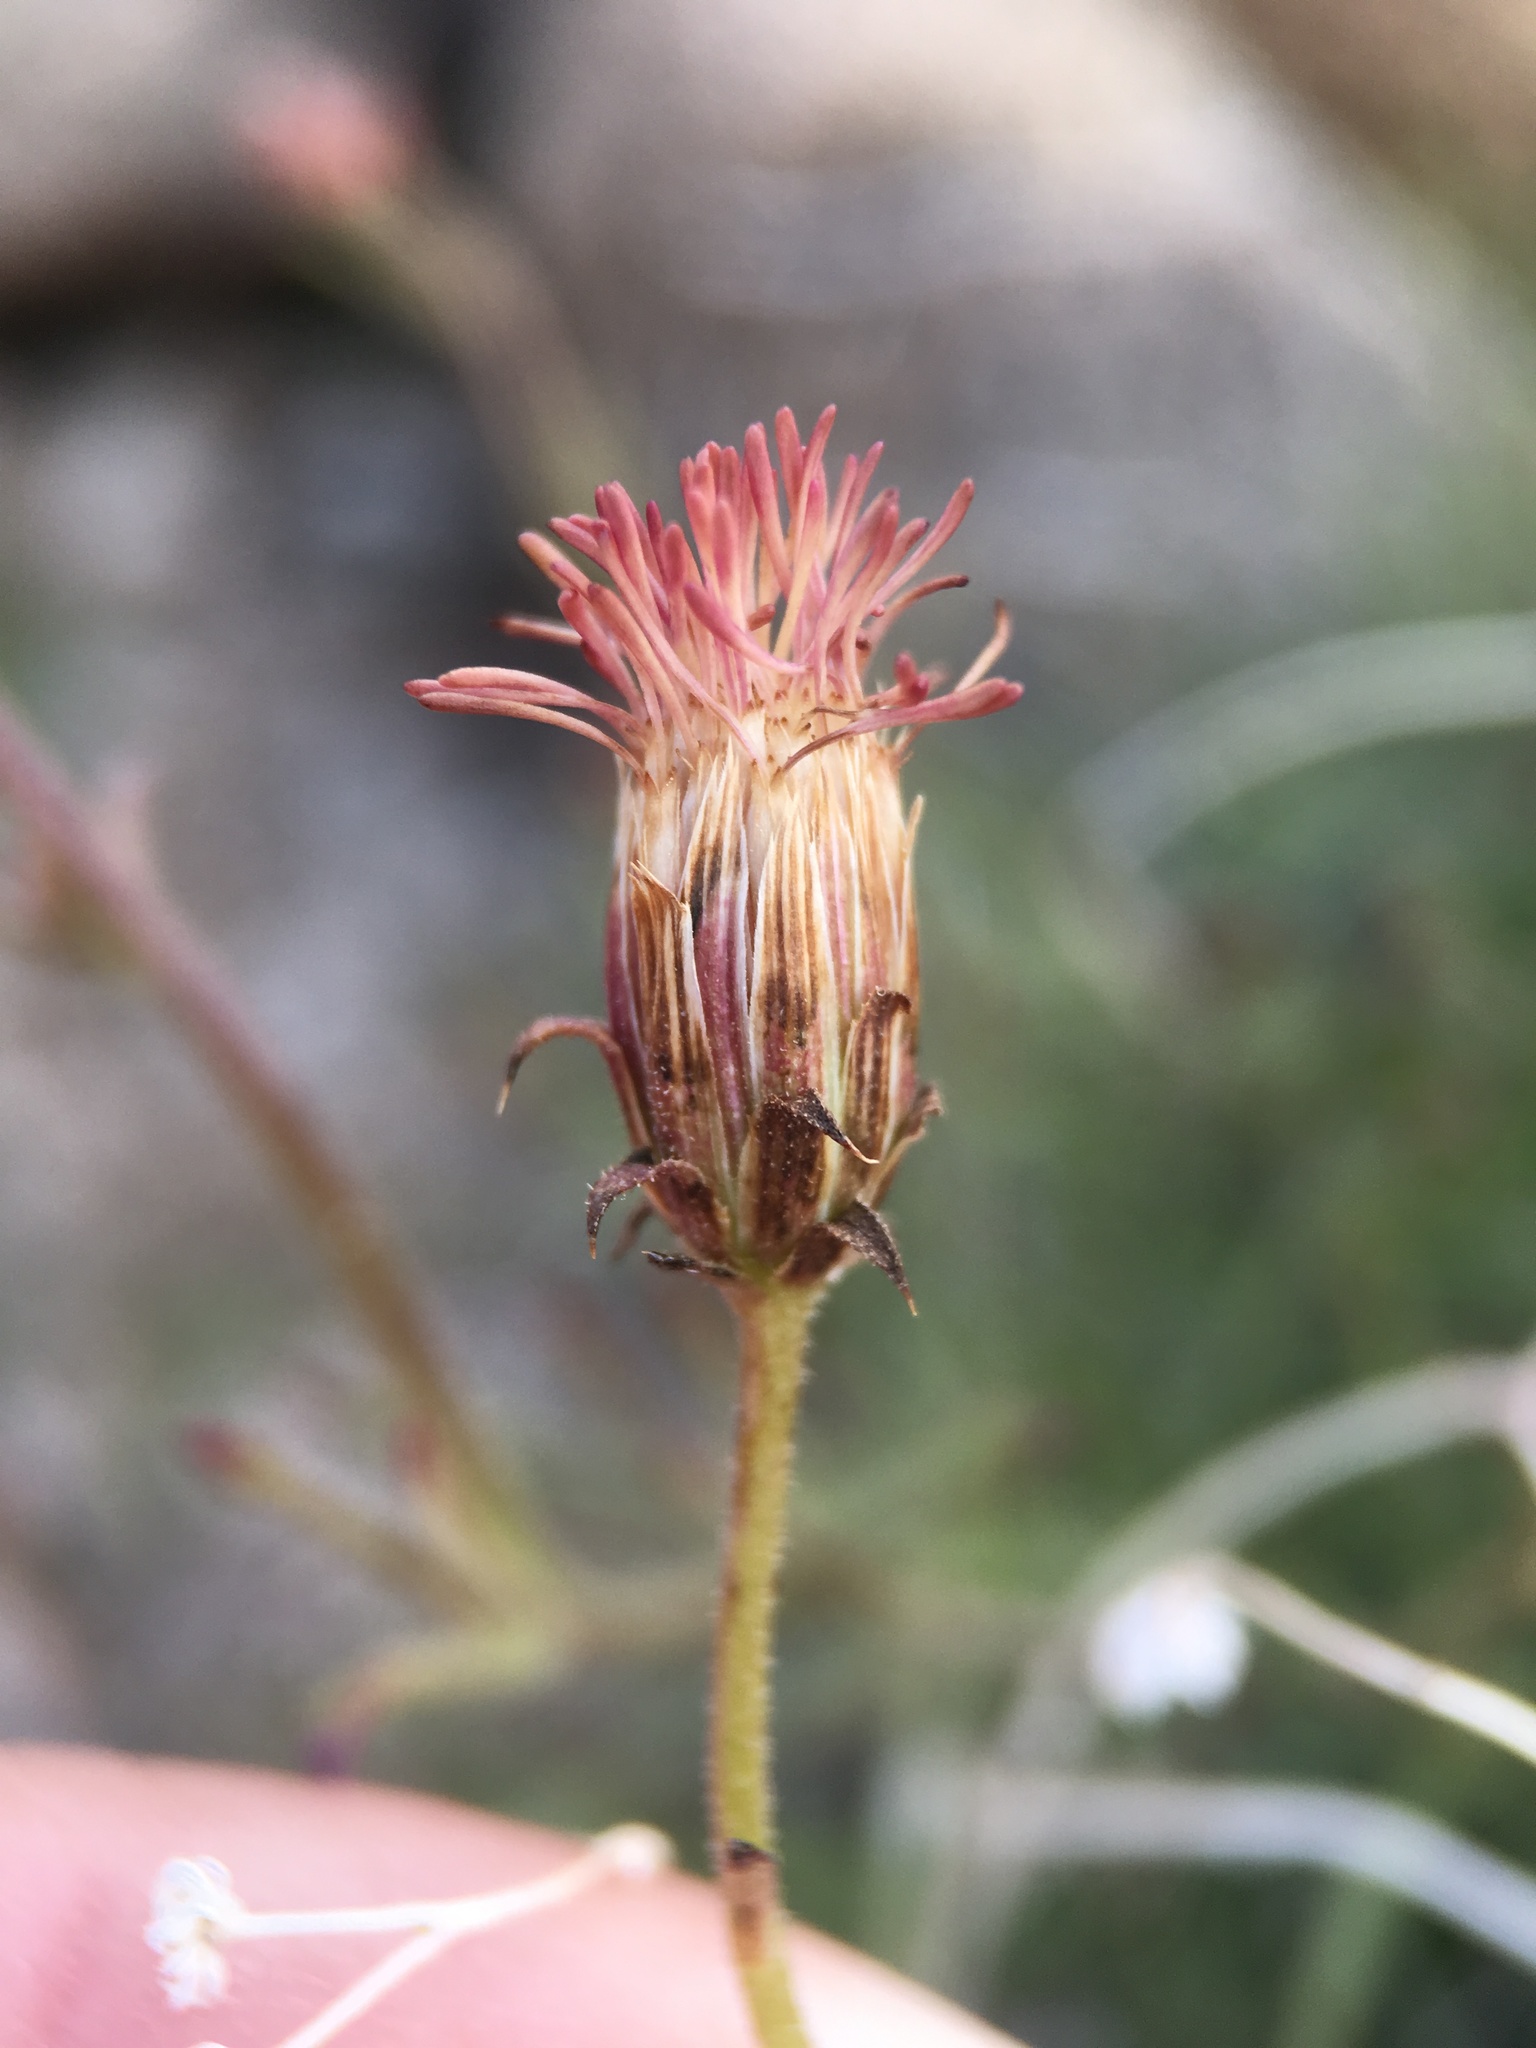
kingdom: Plantae
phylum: Tracheophyta
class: Magnoliopsida
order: Asterales
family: Asteraceae
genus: Pleurocoronis
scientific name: Pleurocoronis pluriseta
